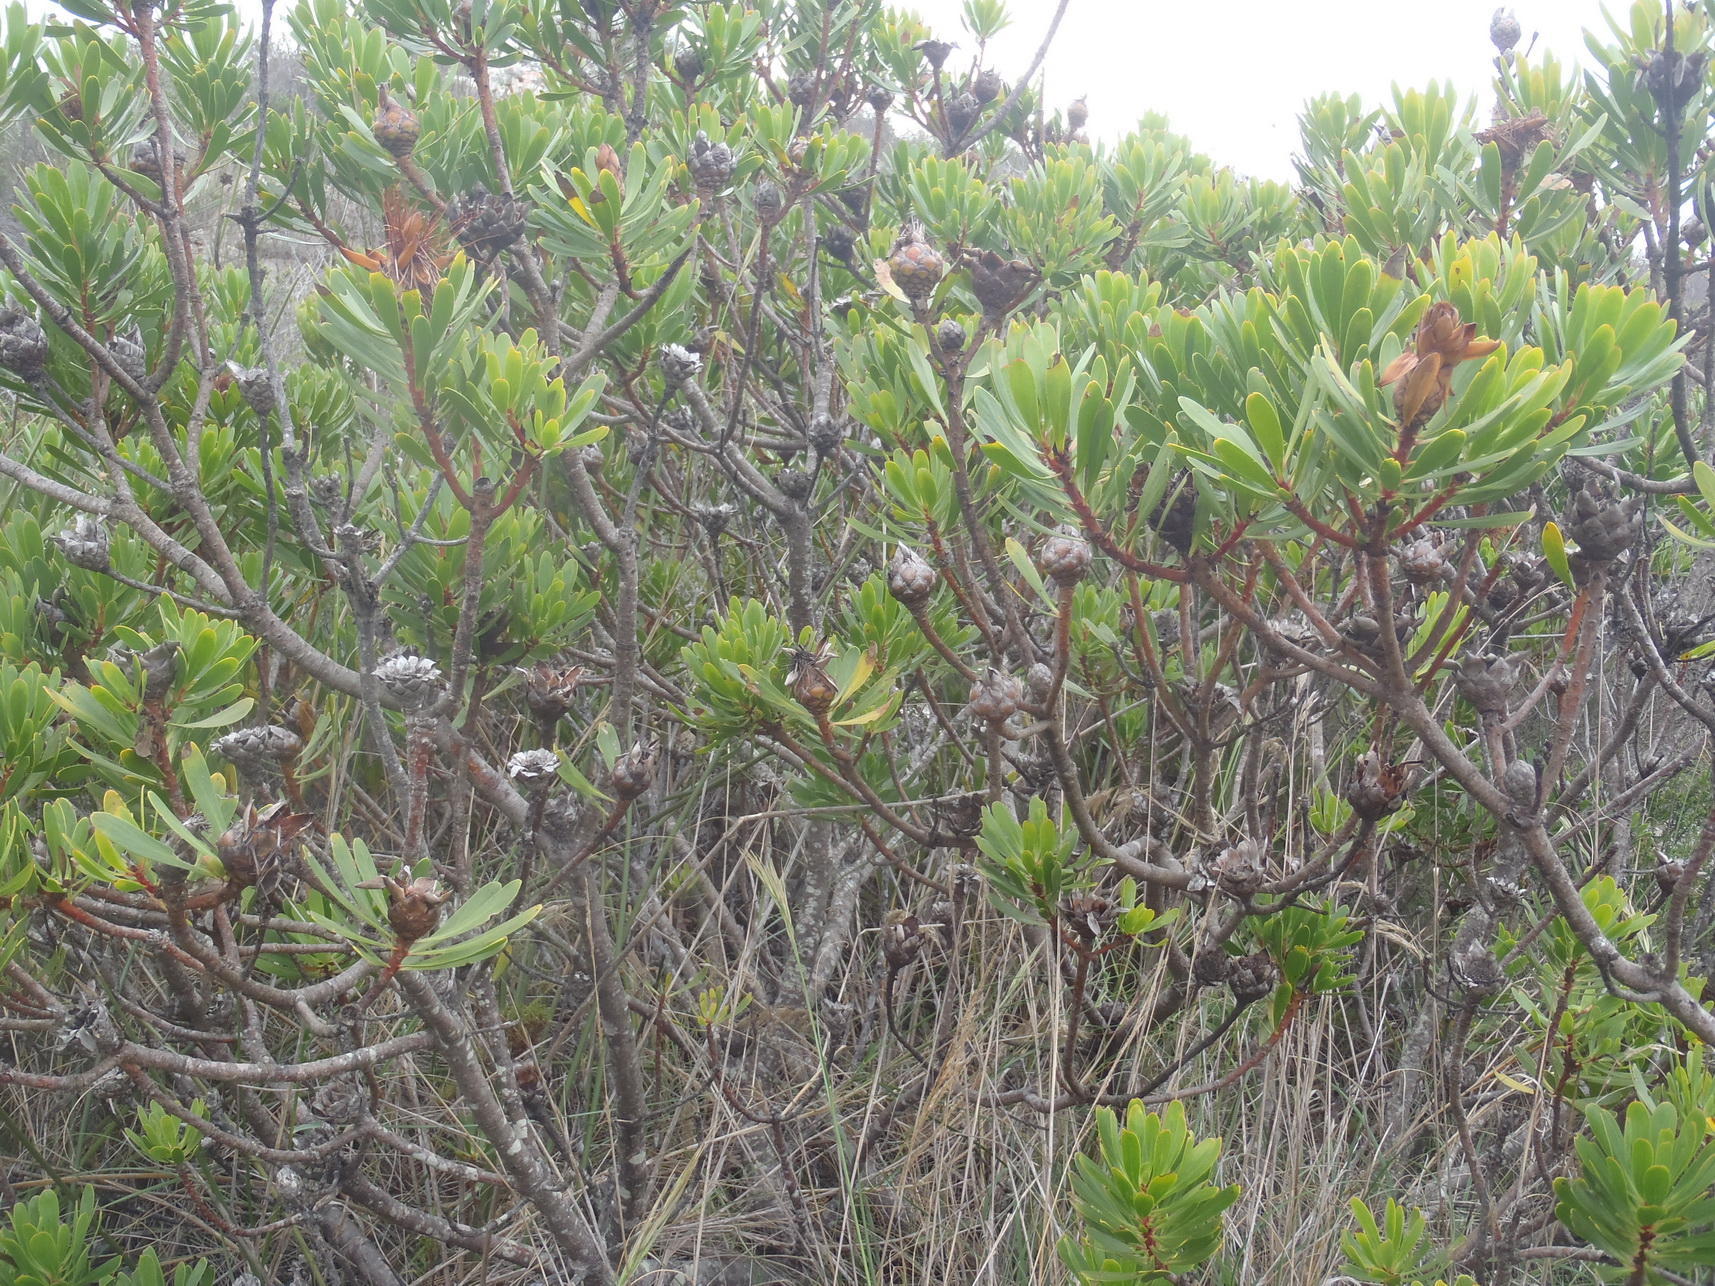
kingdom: Plantae
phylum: Tracheophyta
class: Magnoliopsida
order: Proteales
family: Proteaceae
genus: Protea
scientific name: Protea lanceolata
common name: Lance-leaved protea
